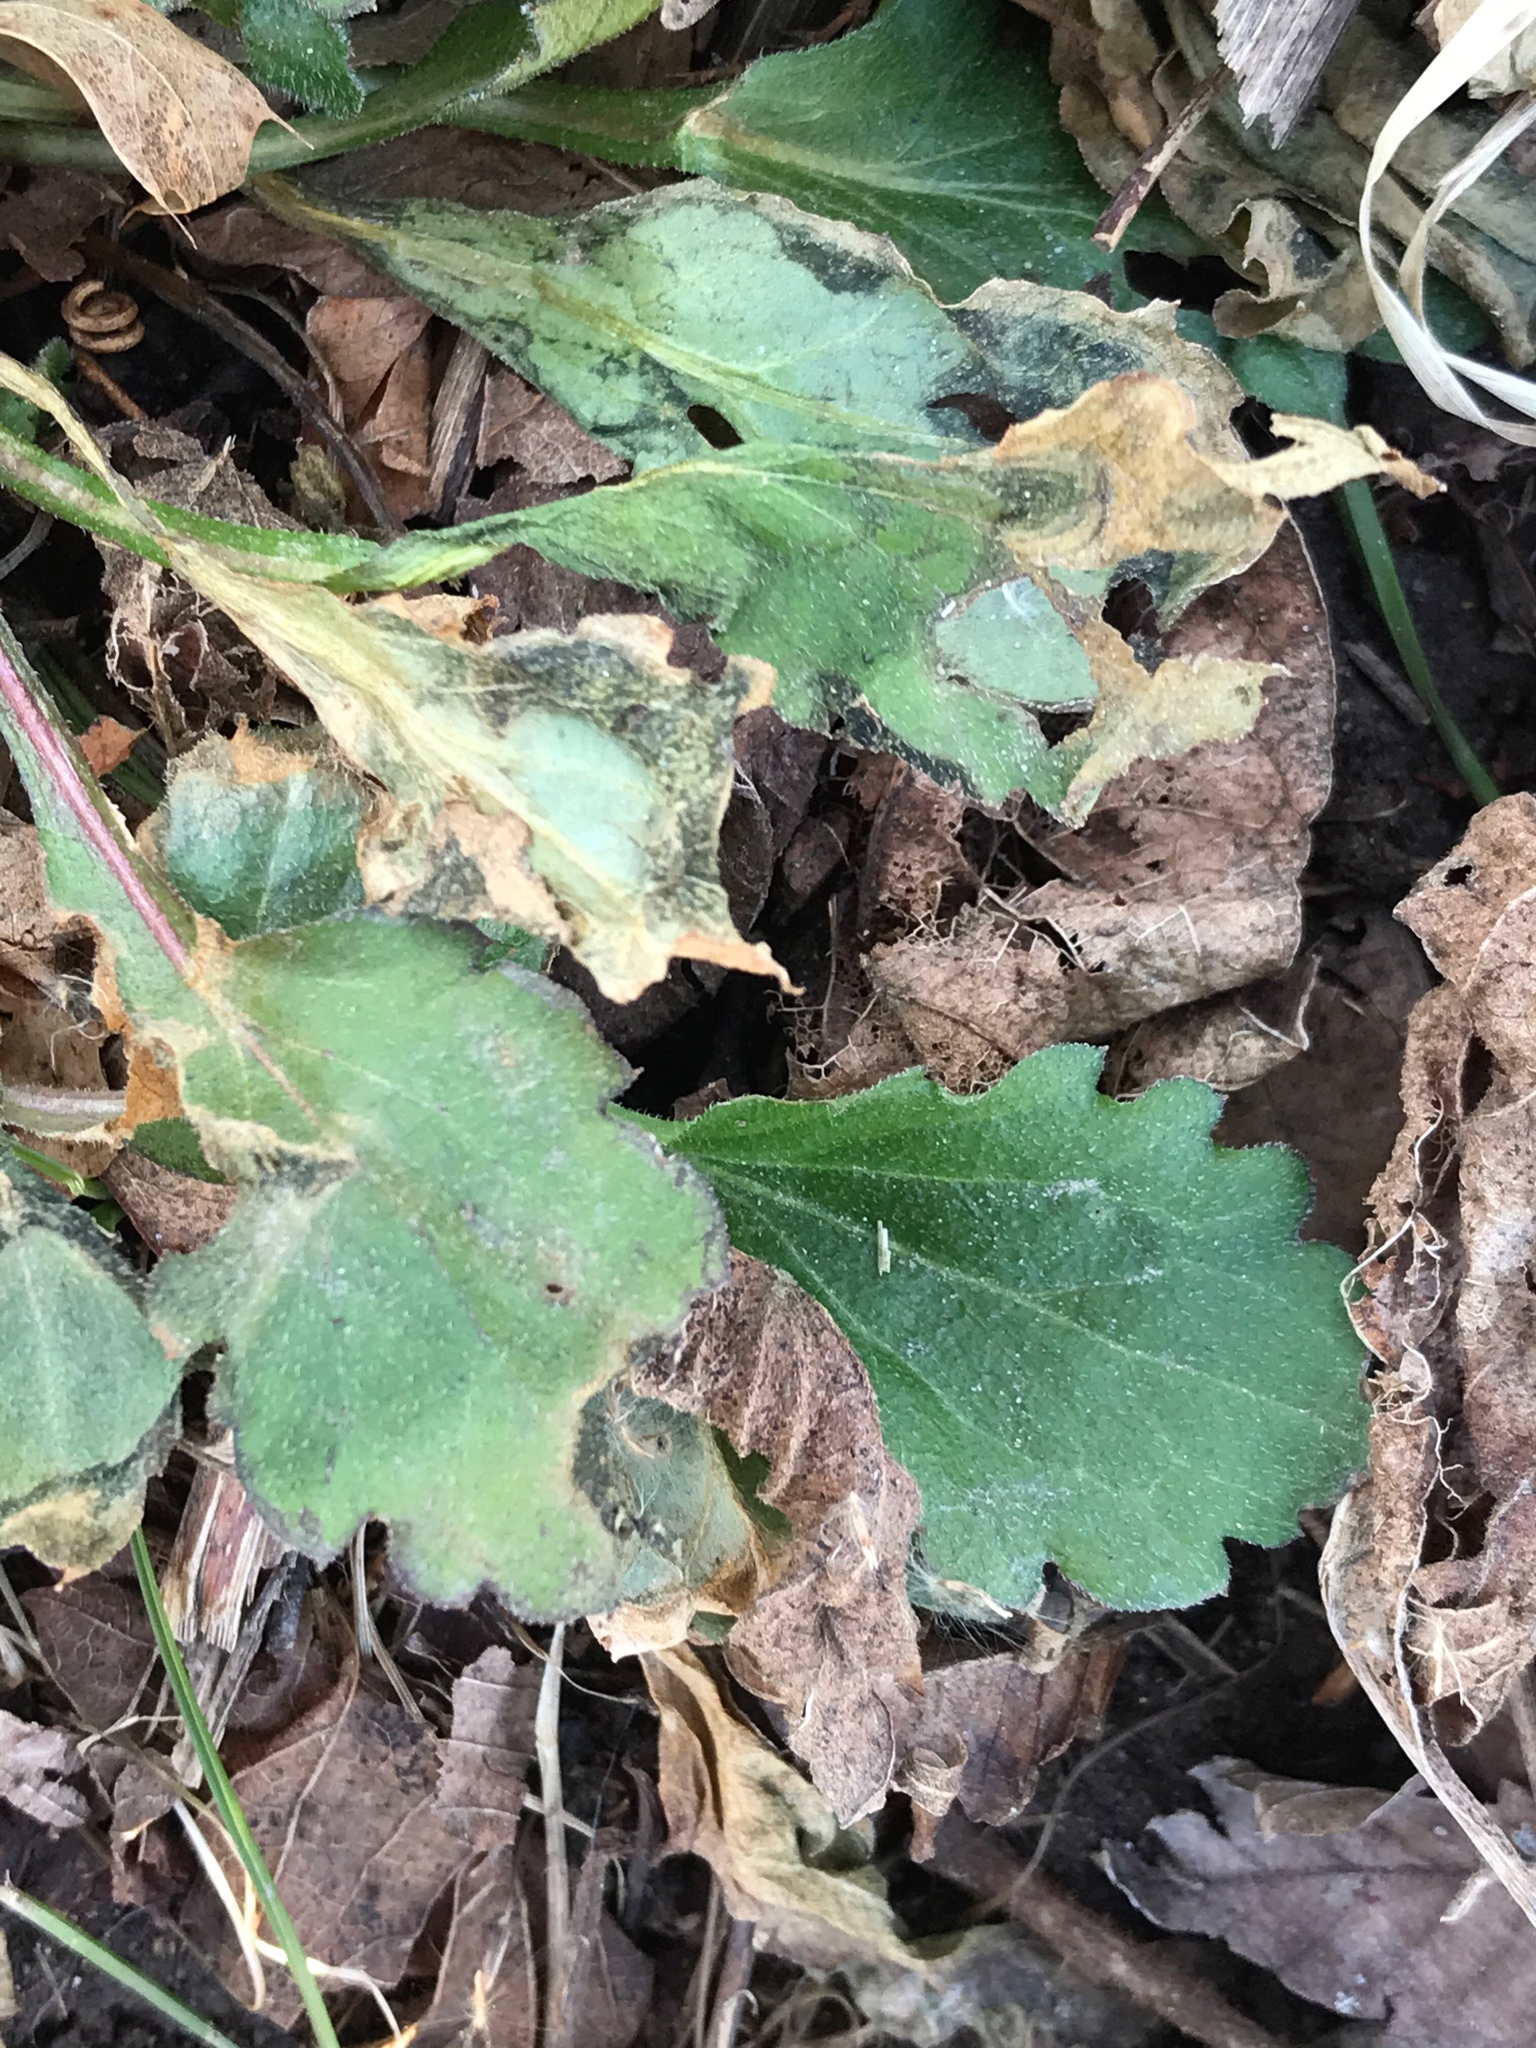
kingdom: Plantae
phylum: Tracheophyta
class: Magnoliopsida
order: Asterales
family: Asteraceae
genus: Erigeron
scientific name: Erigeron canadensis
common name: Canadian fleabane
